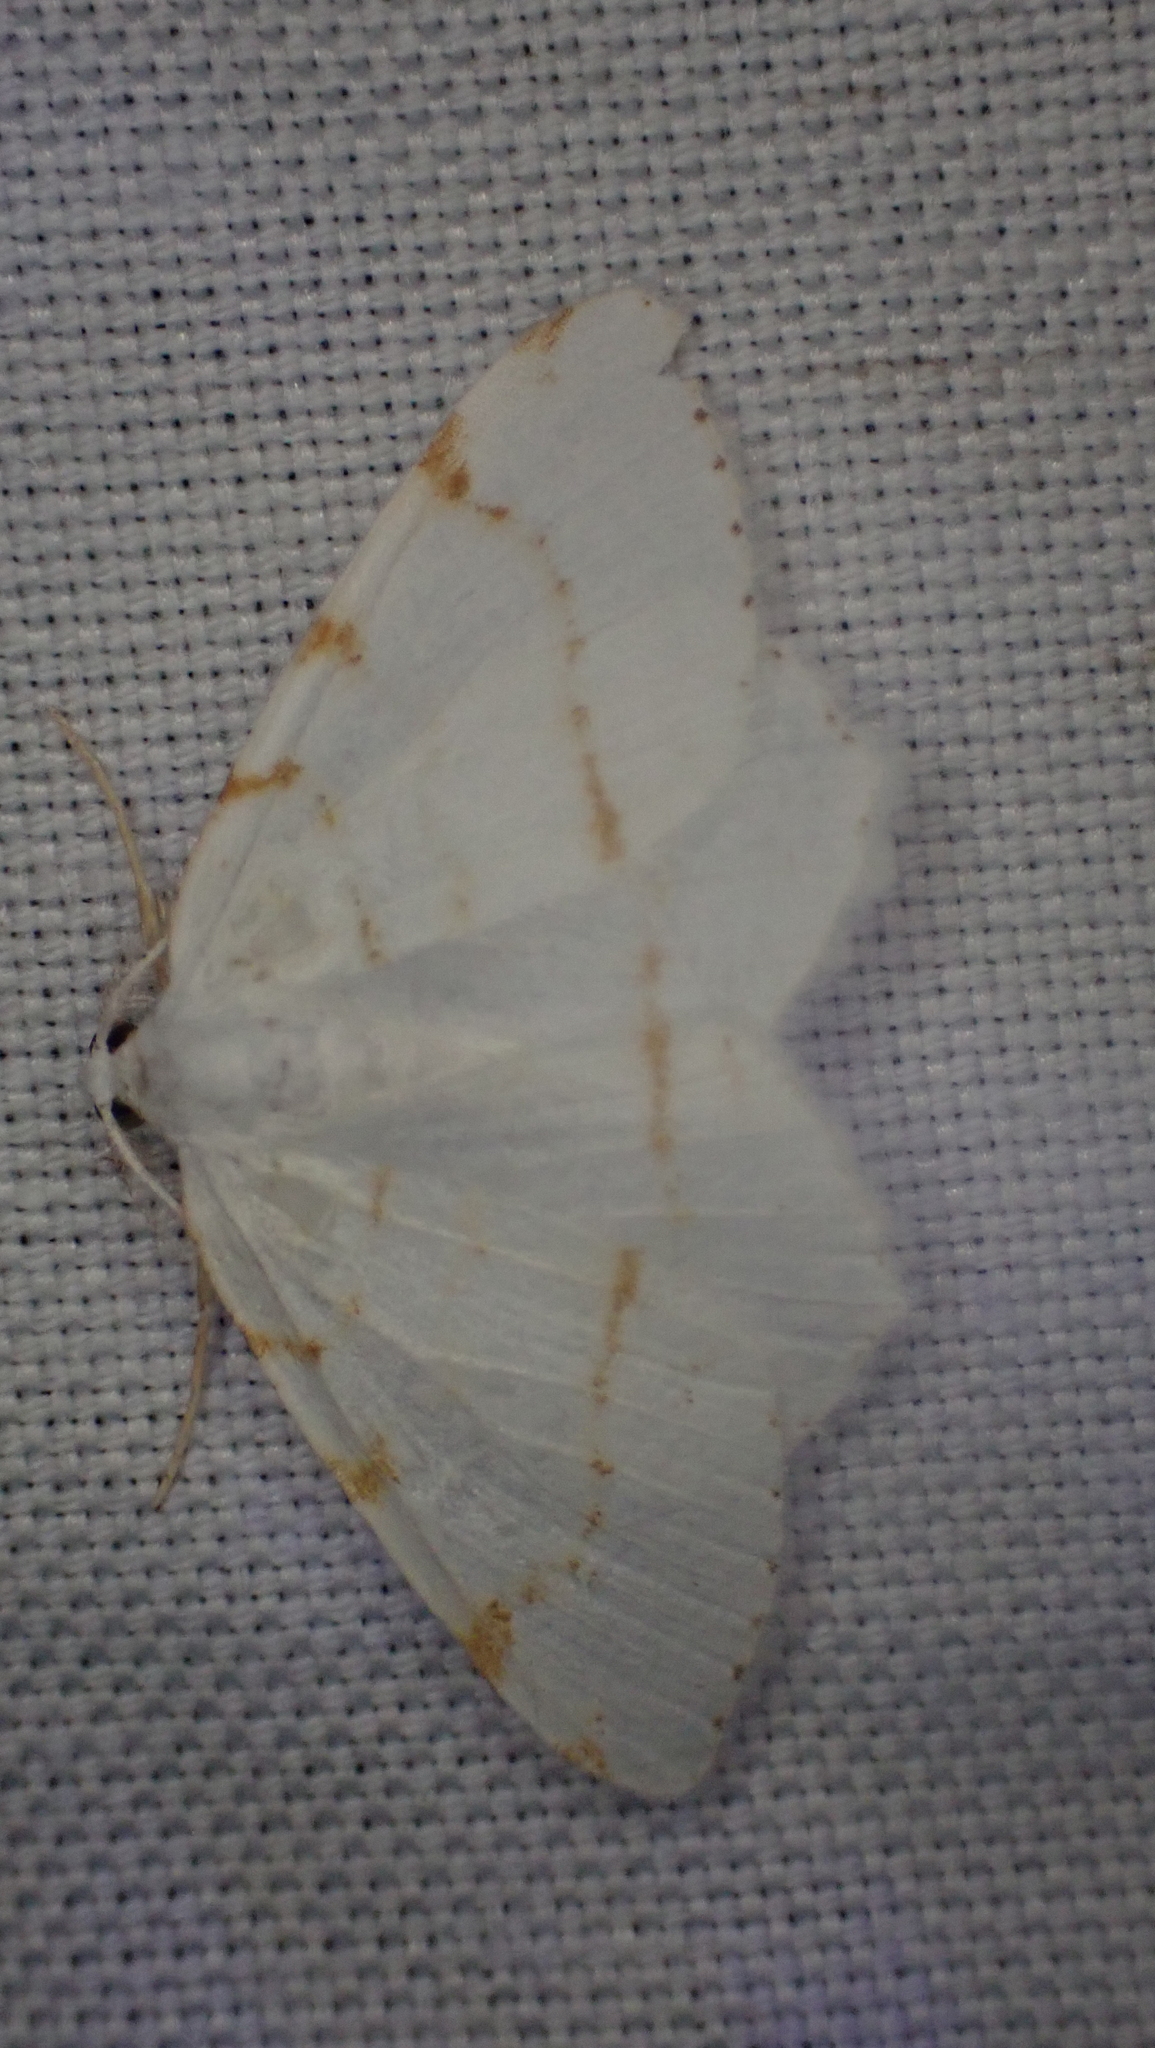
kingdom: Animalia
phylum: Arthropoda
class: Insecta
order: Lepidoptera
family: Geometridae
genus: Macaria
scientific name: Macaria pustularia
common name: Lesser maple spanworm moth
